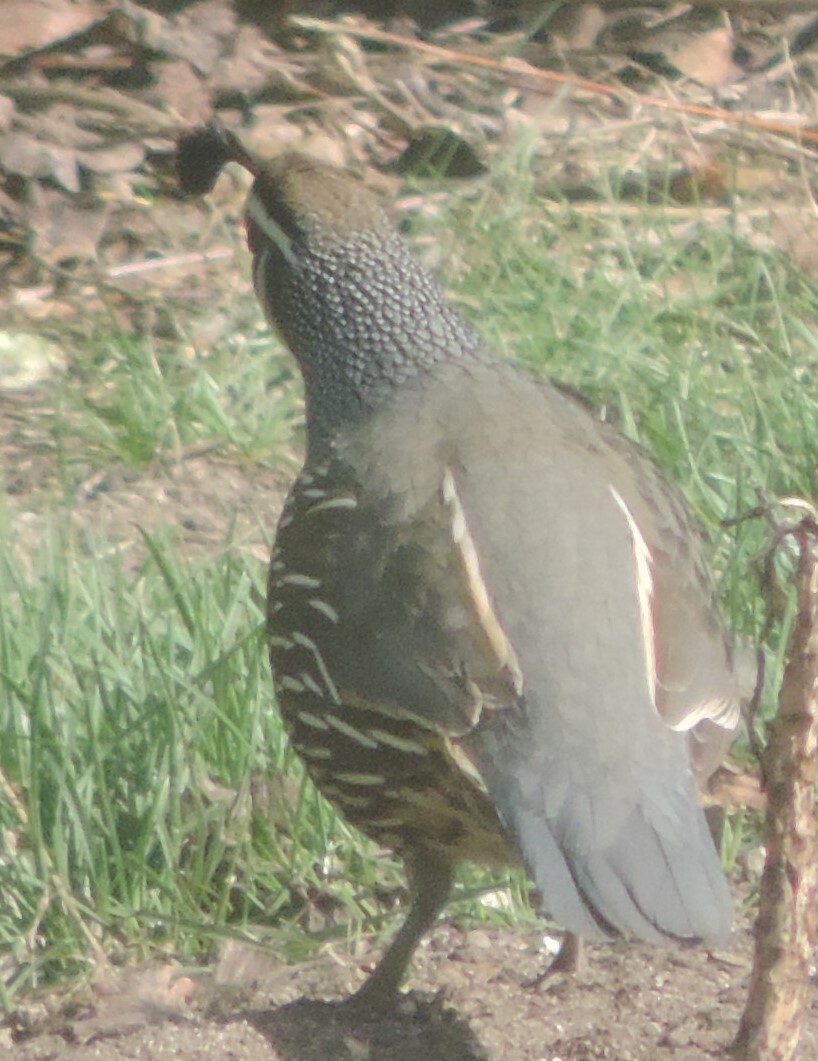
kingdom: Animalia
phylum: Chordata
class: Aves
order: Galliformes
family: Odontophoridae
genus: Callipepla
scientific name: Callipepla californica
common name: California quail
